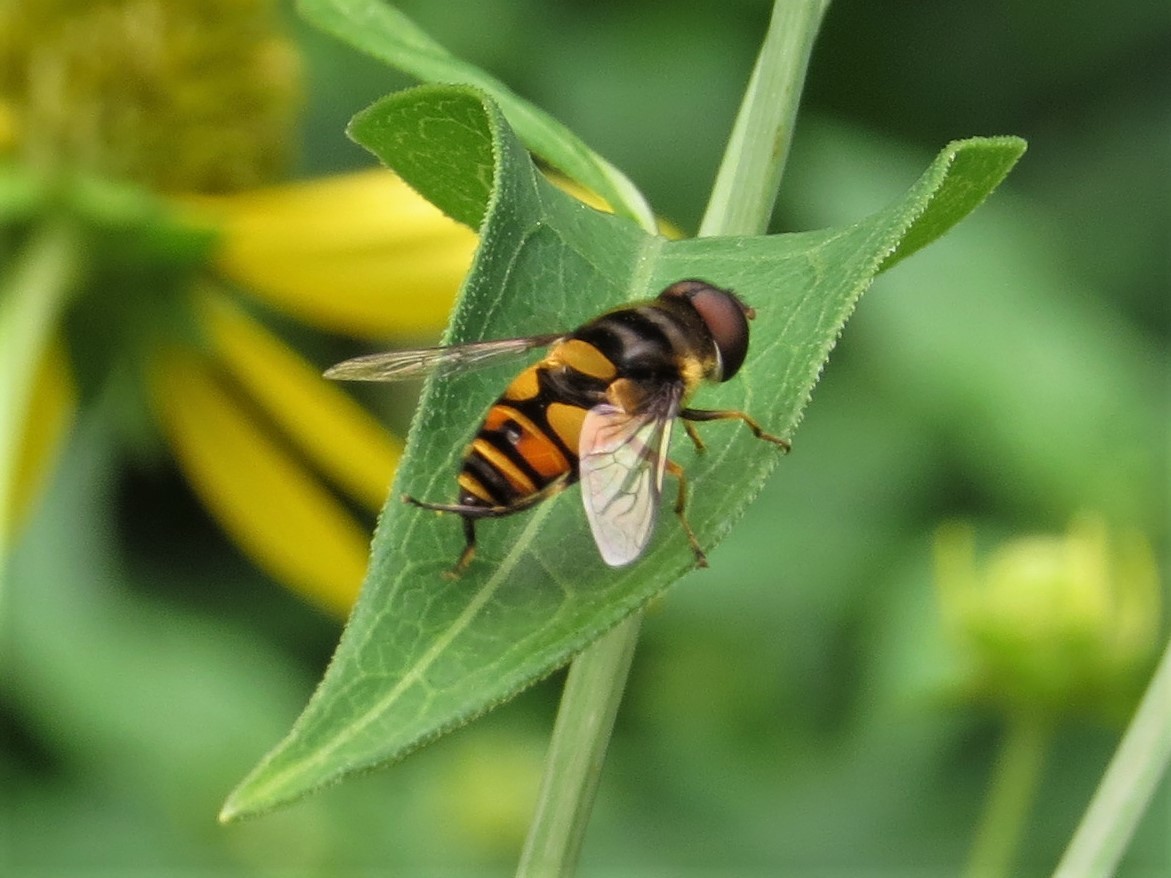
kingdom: Animalia
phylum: Arthropoda
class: Insecta
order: Diptera
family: Syrphidae
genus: Eristalis
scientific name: Eristalis transversa
